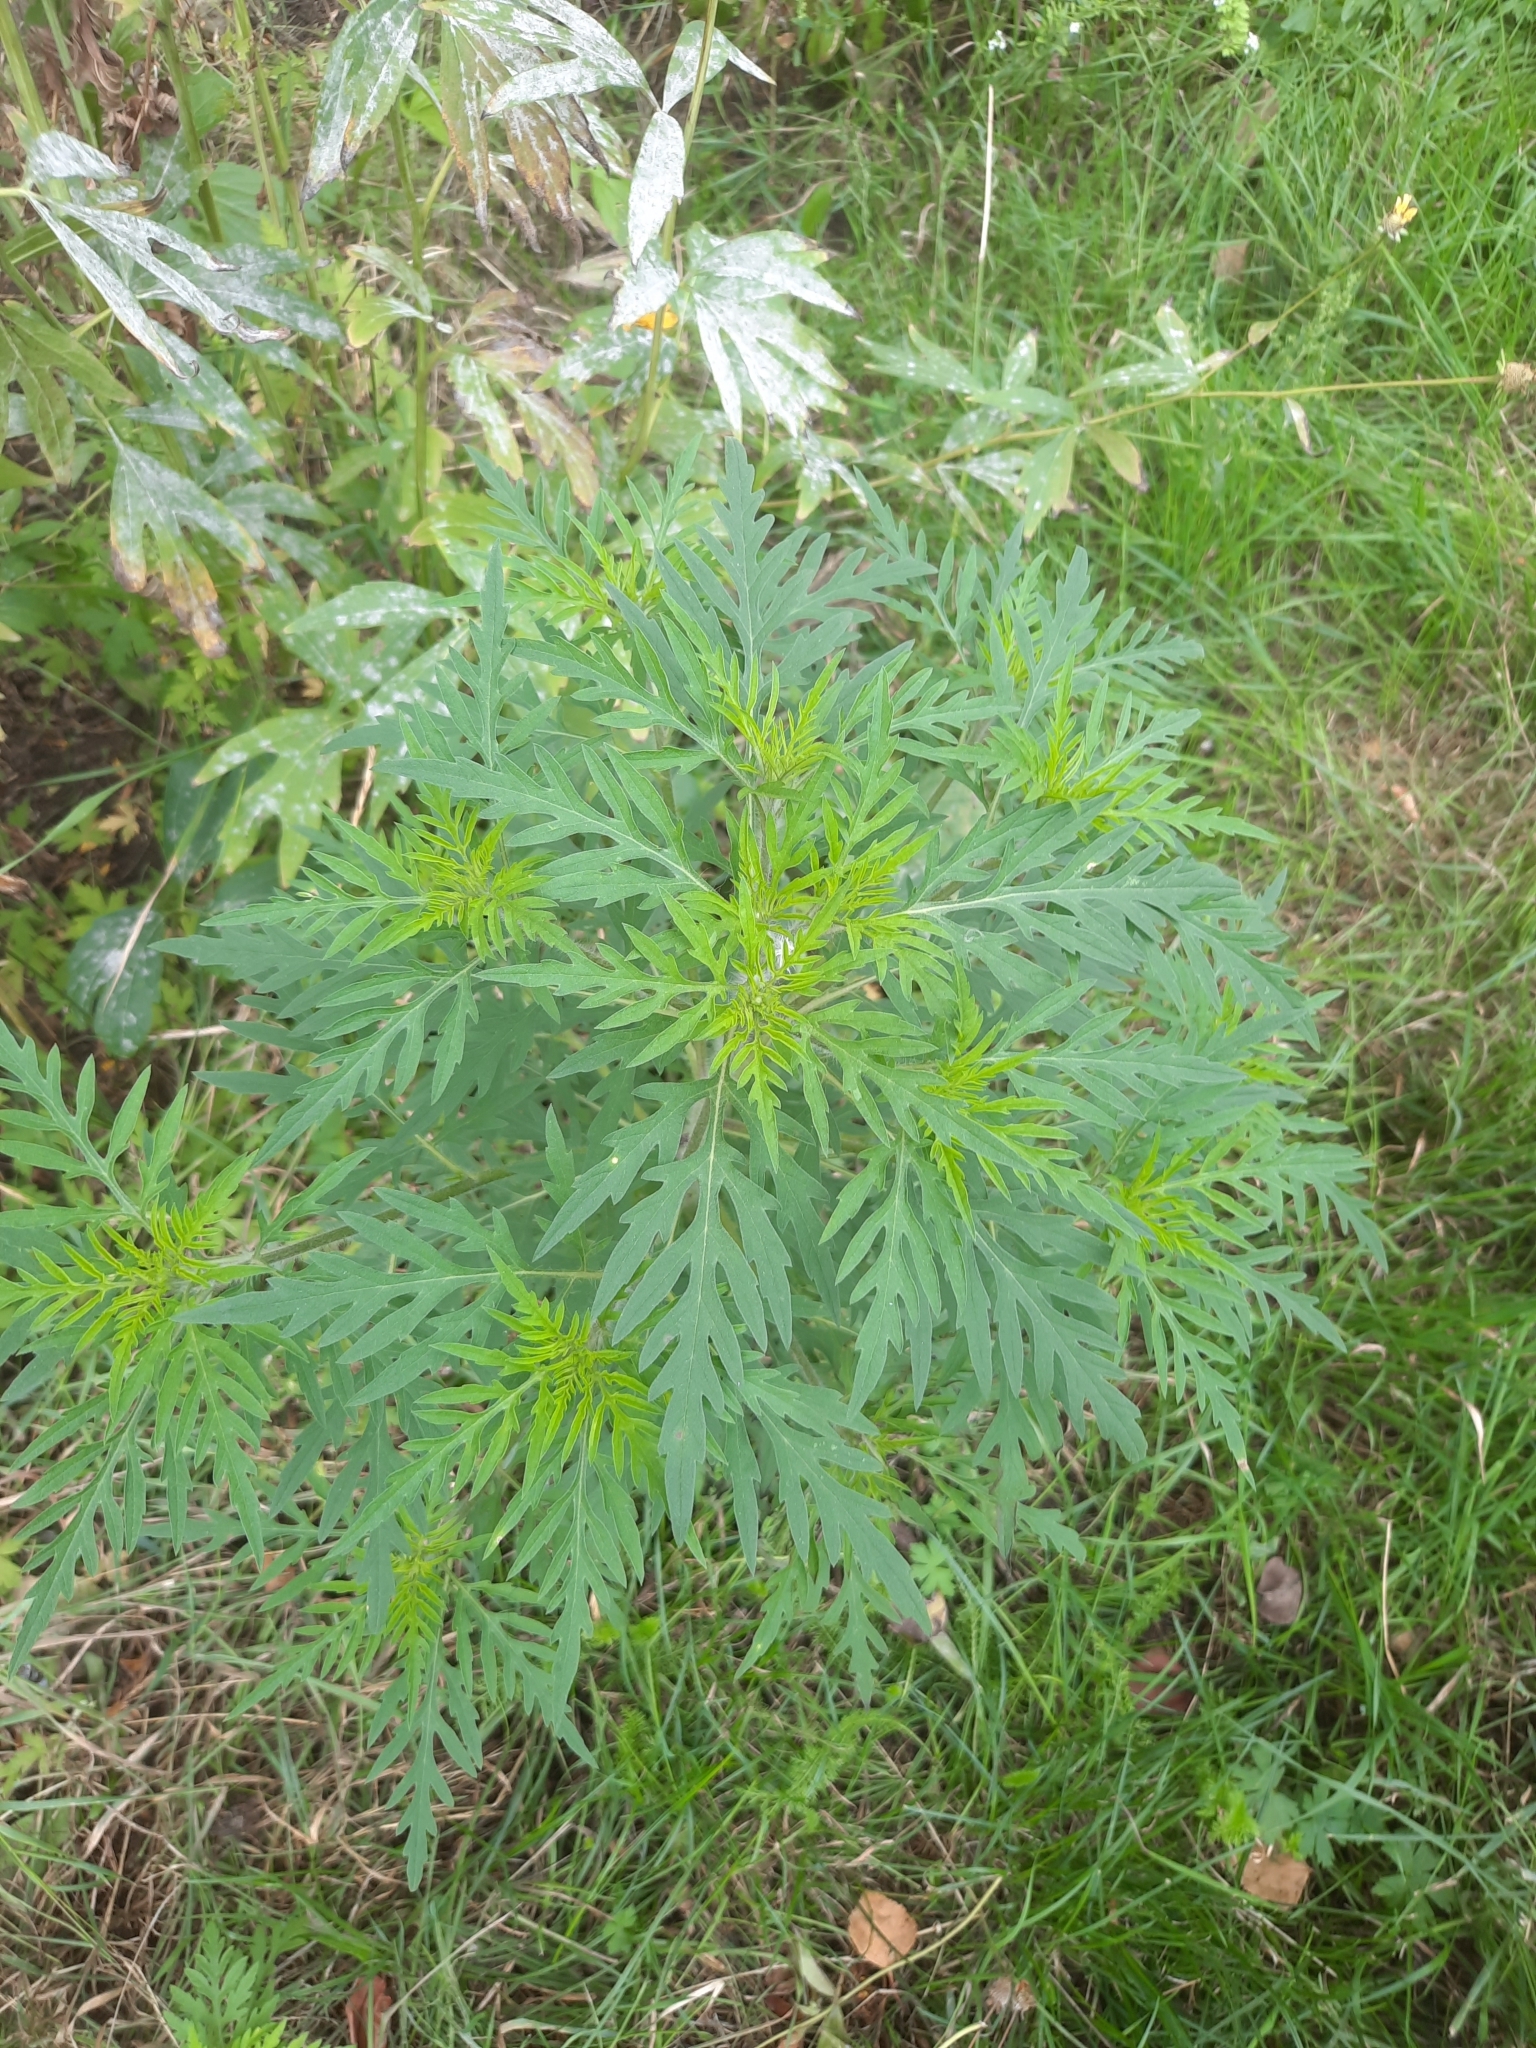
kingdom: Plantae
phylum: Tracheophyta
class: Magnoliopsida
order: Asterales
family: Asteraceae
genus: Ambrosia
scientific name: Ambrosia artemisiifolia
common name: Annual ragweed
